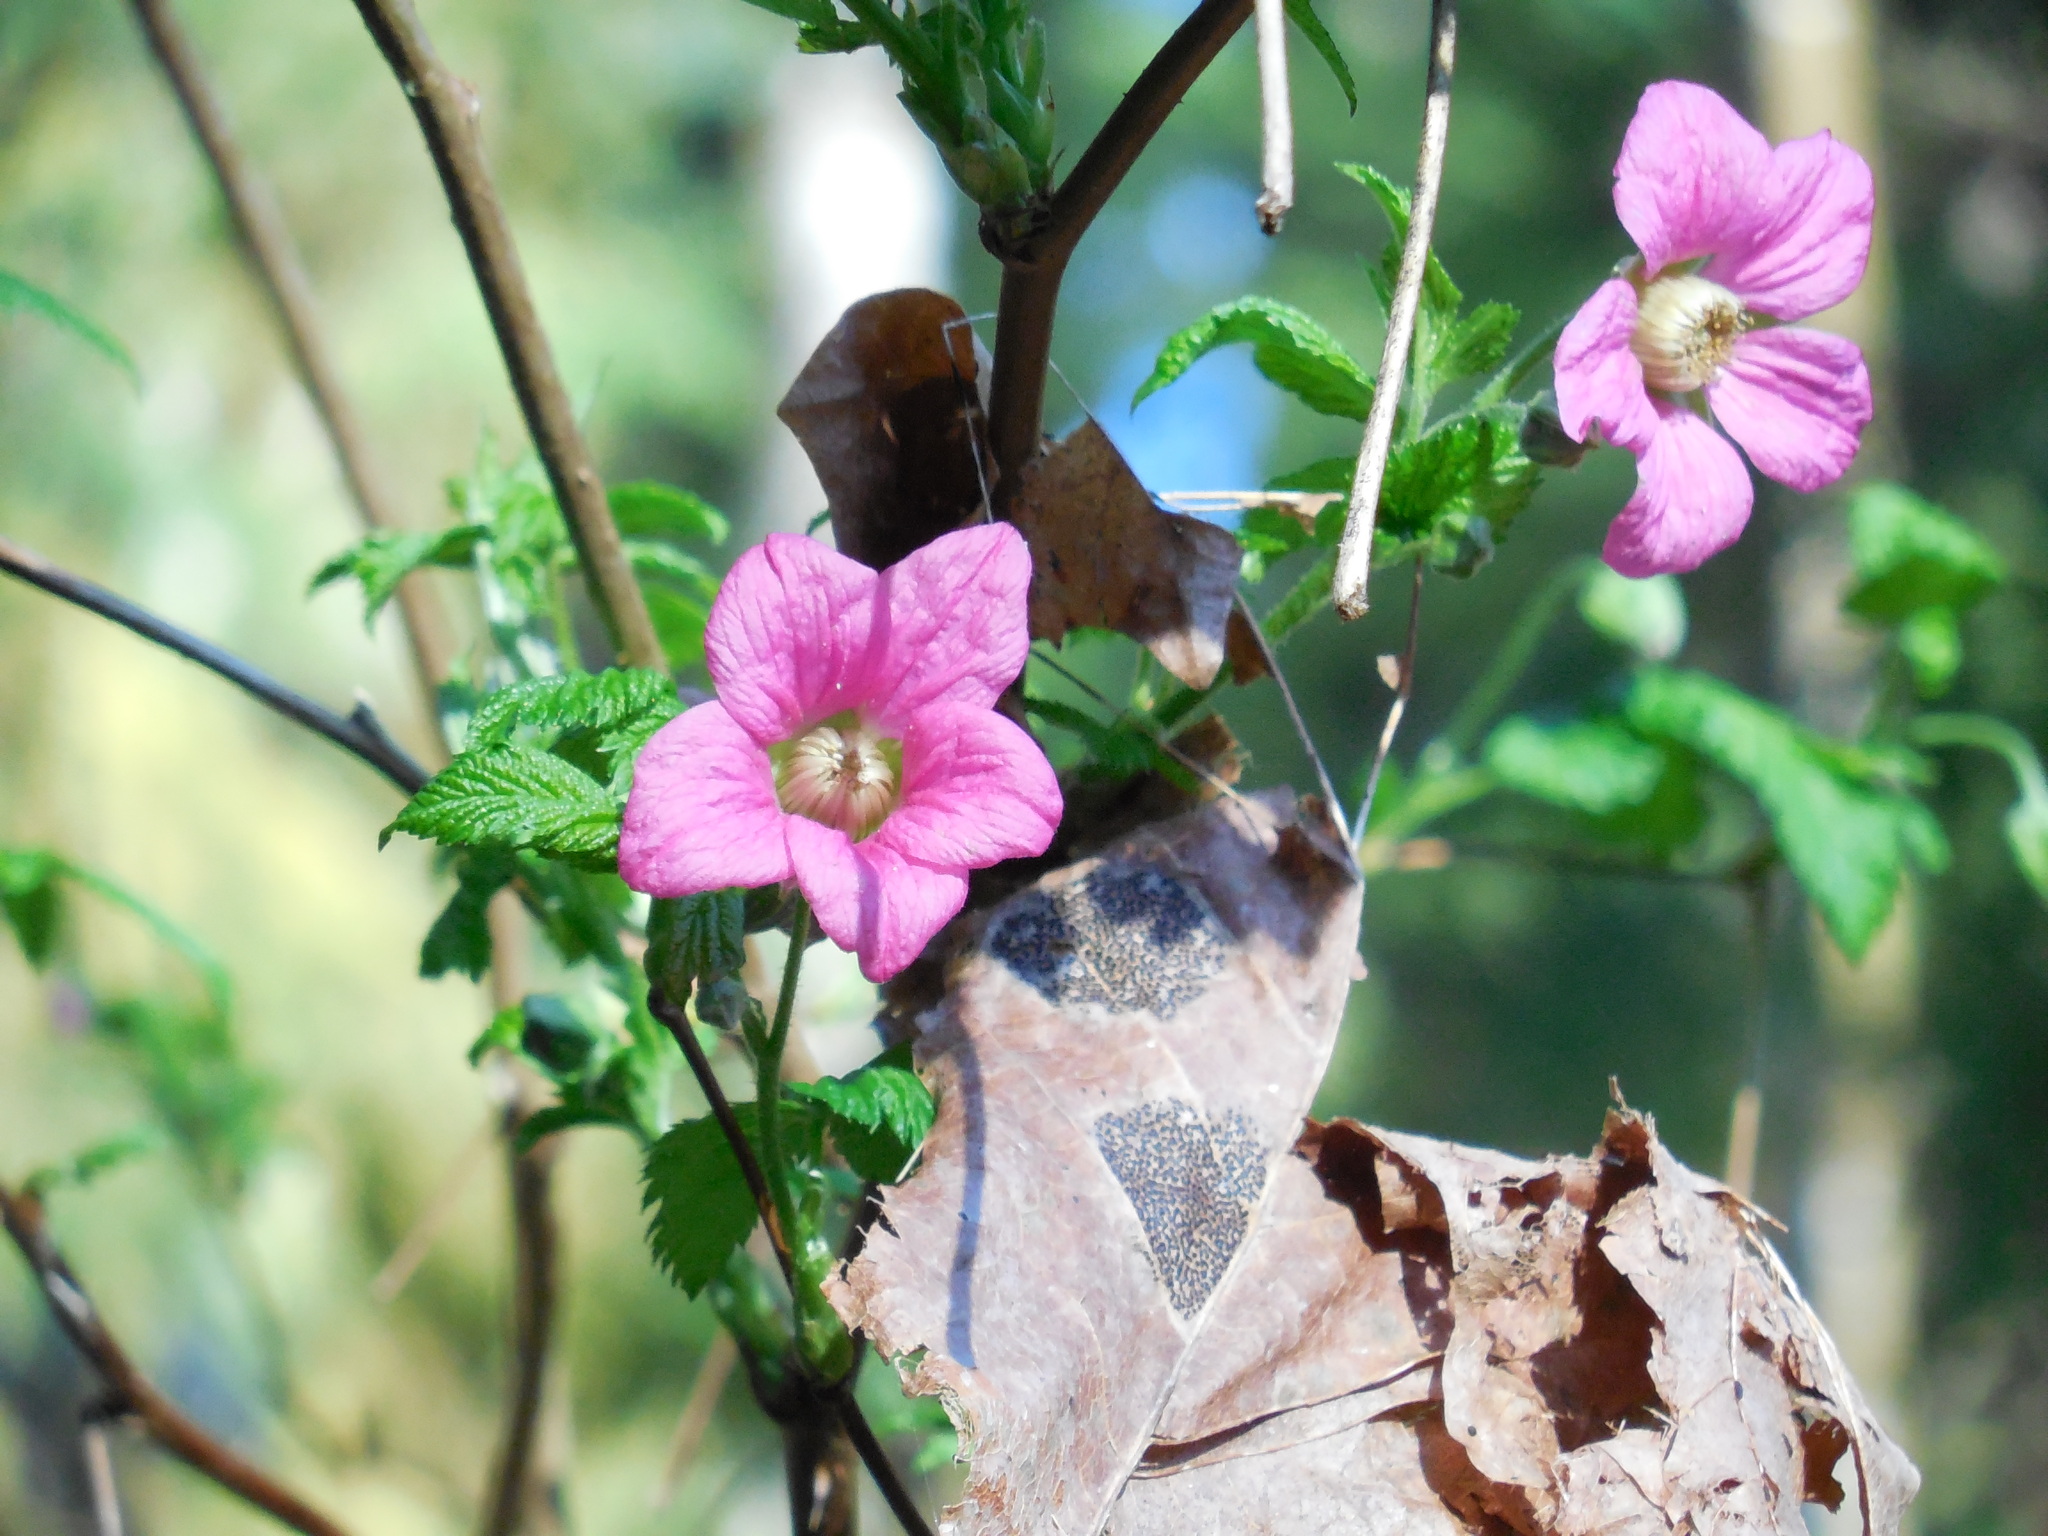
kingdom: Plantae
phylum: Tracheophyta
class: Magnoliopsida
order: Rosales
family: Rosaceae
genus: Rubus
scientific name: Rubus spectabilis
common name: Salmonberry
